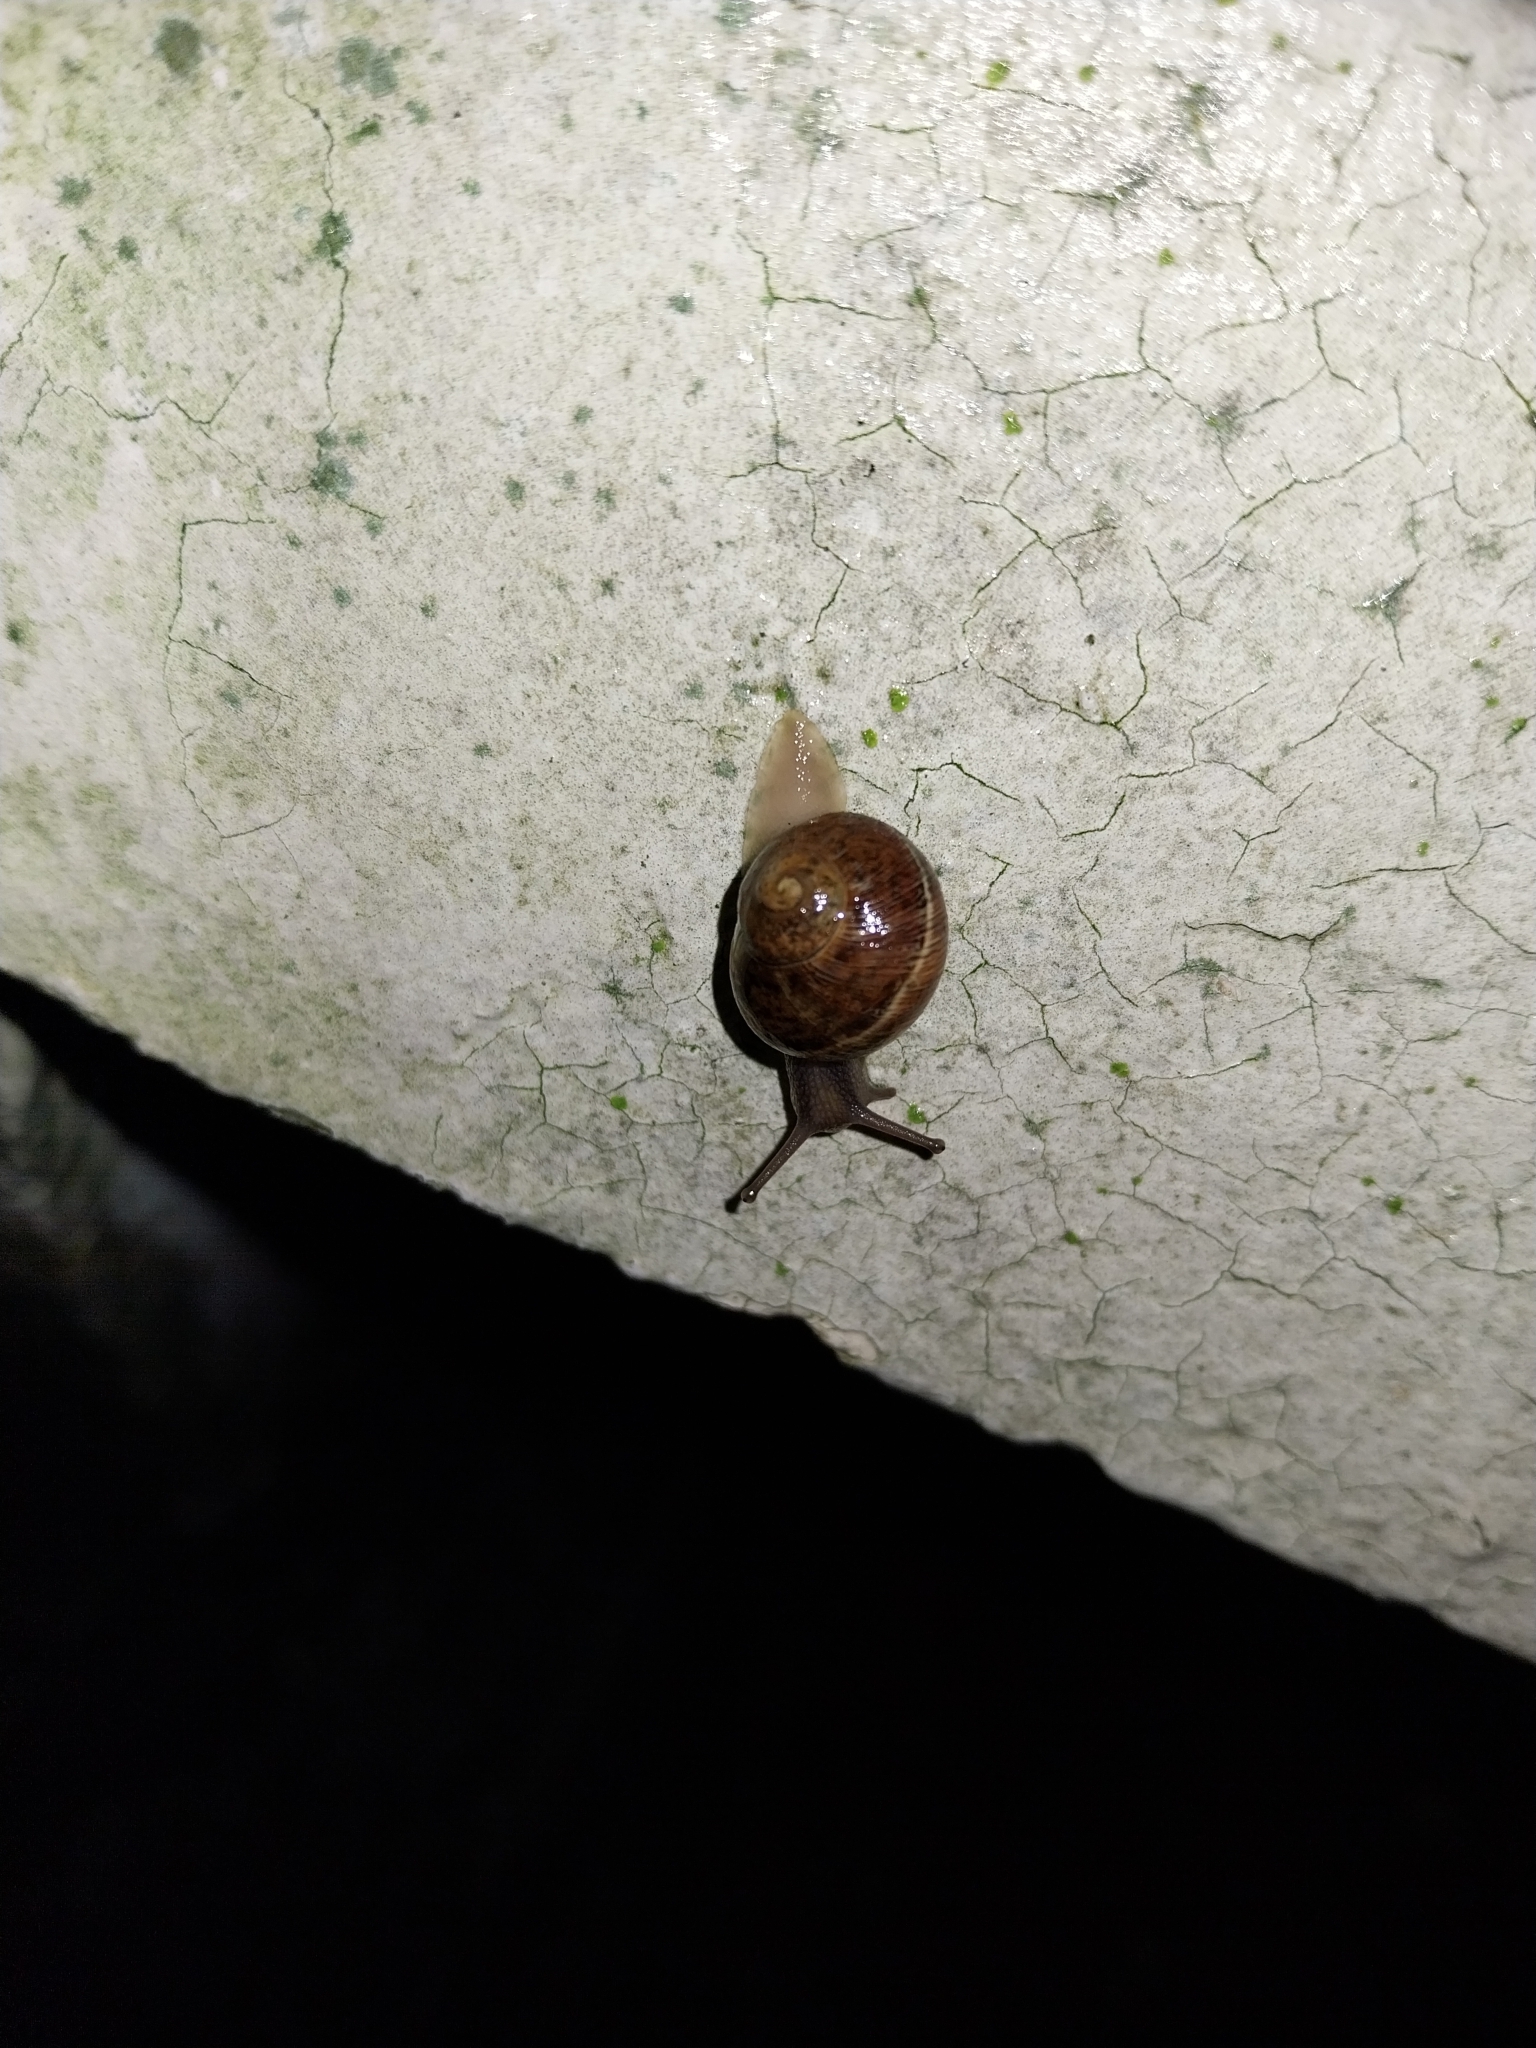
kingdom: Animalia
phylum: Mollusca
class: Gastropoda
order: Stylommatophora
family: Helicidae
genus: Cornu
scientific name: Cornu aspersum
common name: Brown garden snail
